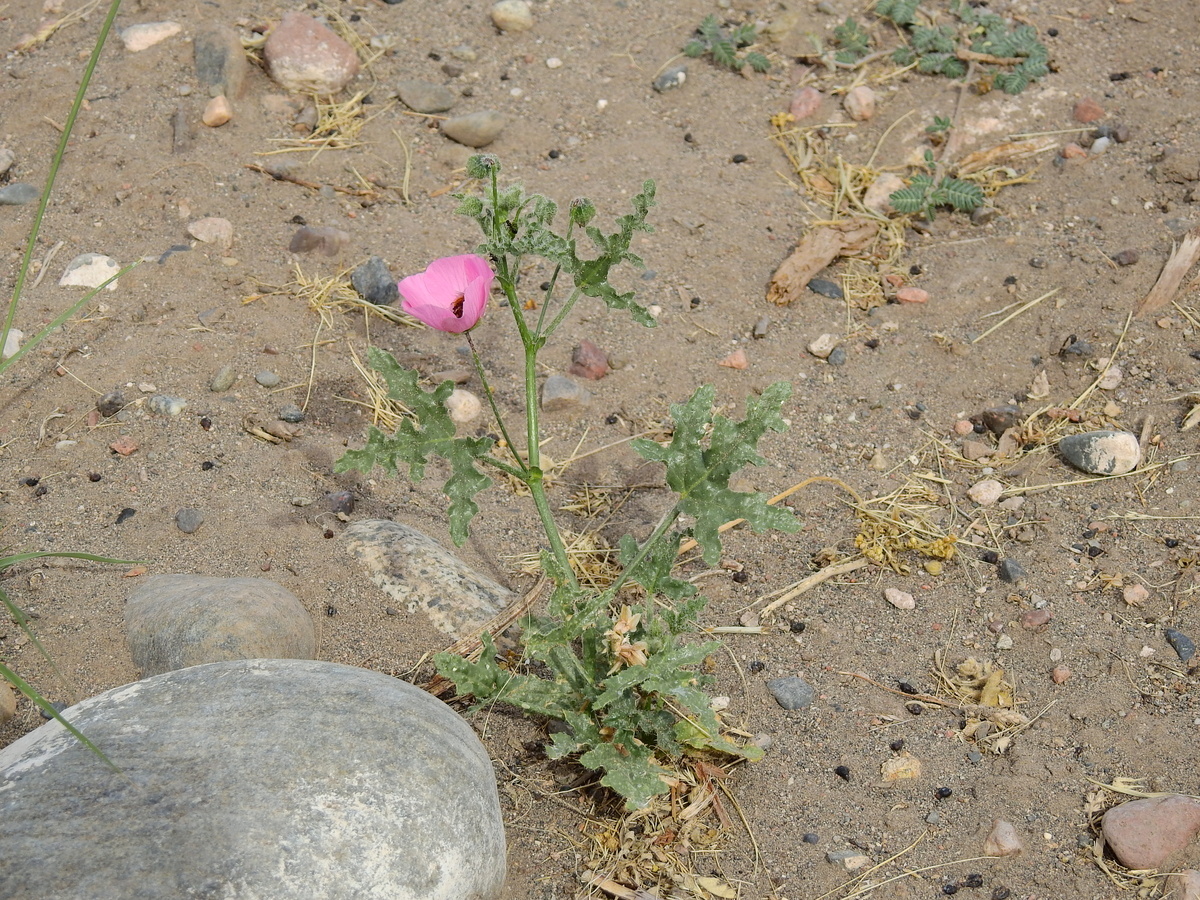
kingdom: Plantae
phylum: Tracheophyta
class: Magnoliopsida
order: Malvales
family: Malvaceae
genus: Lecanophora
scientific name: Lecanophora heterophylla
